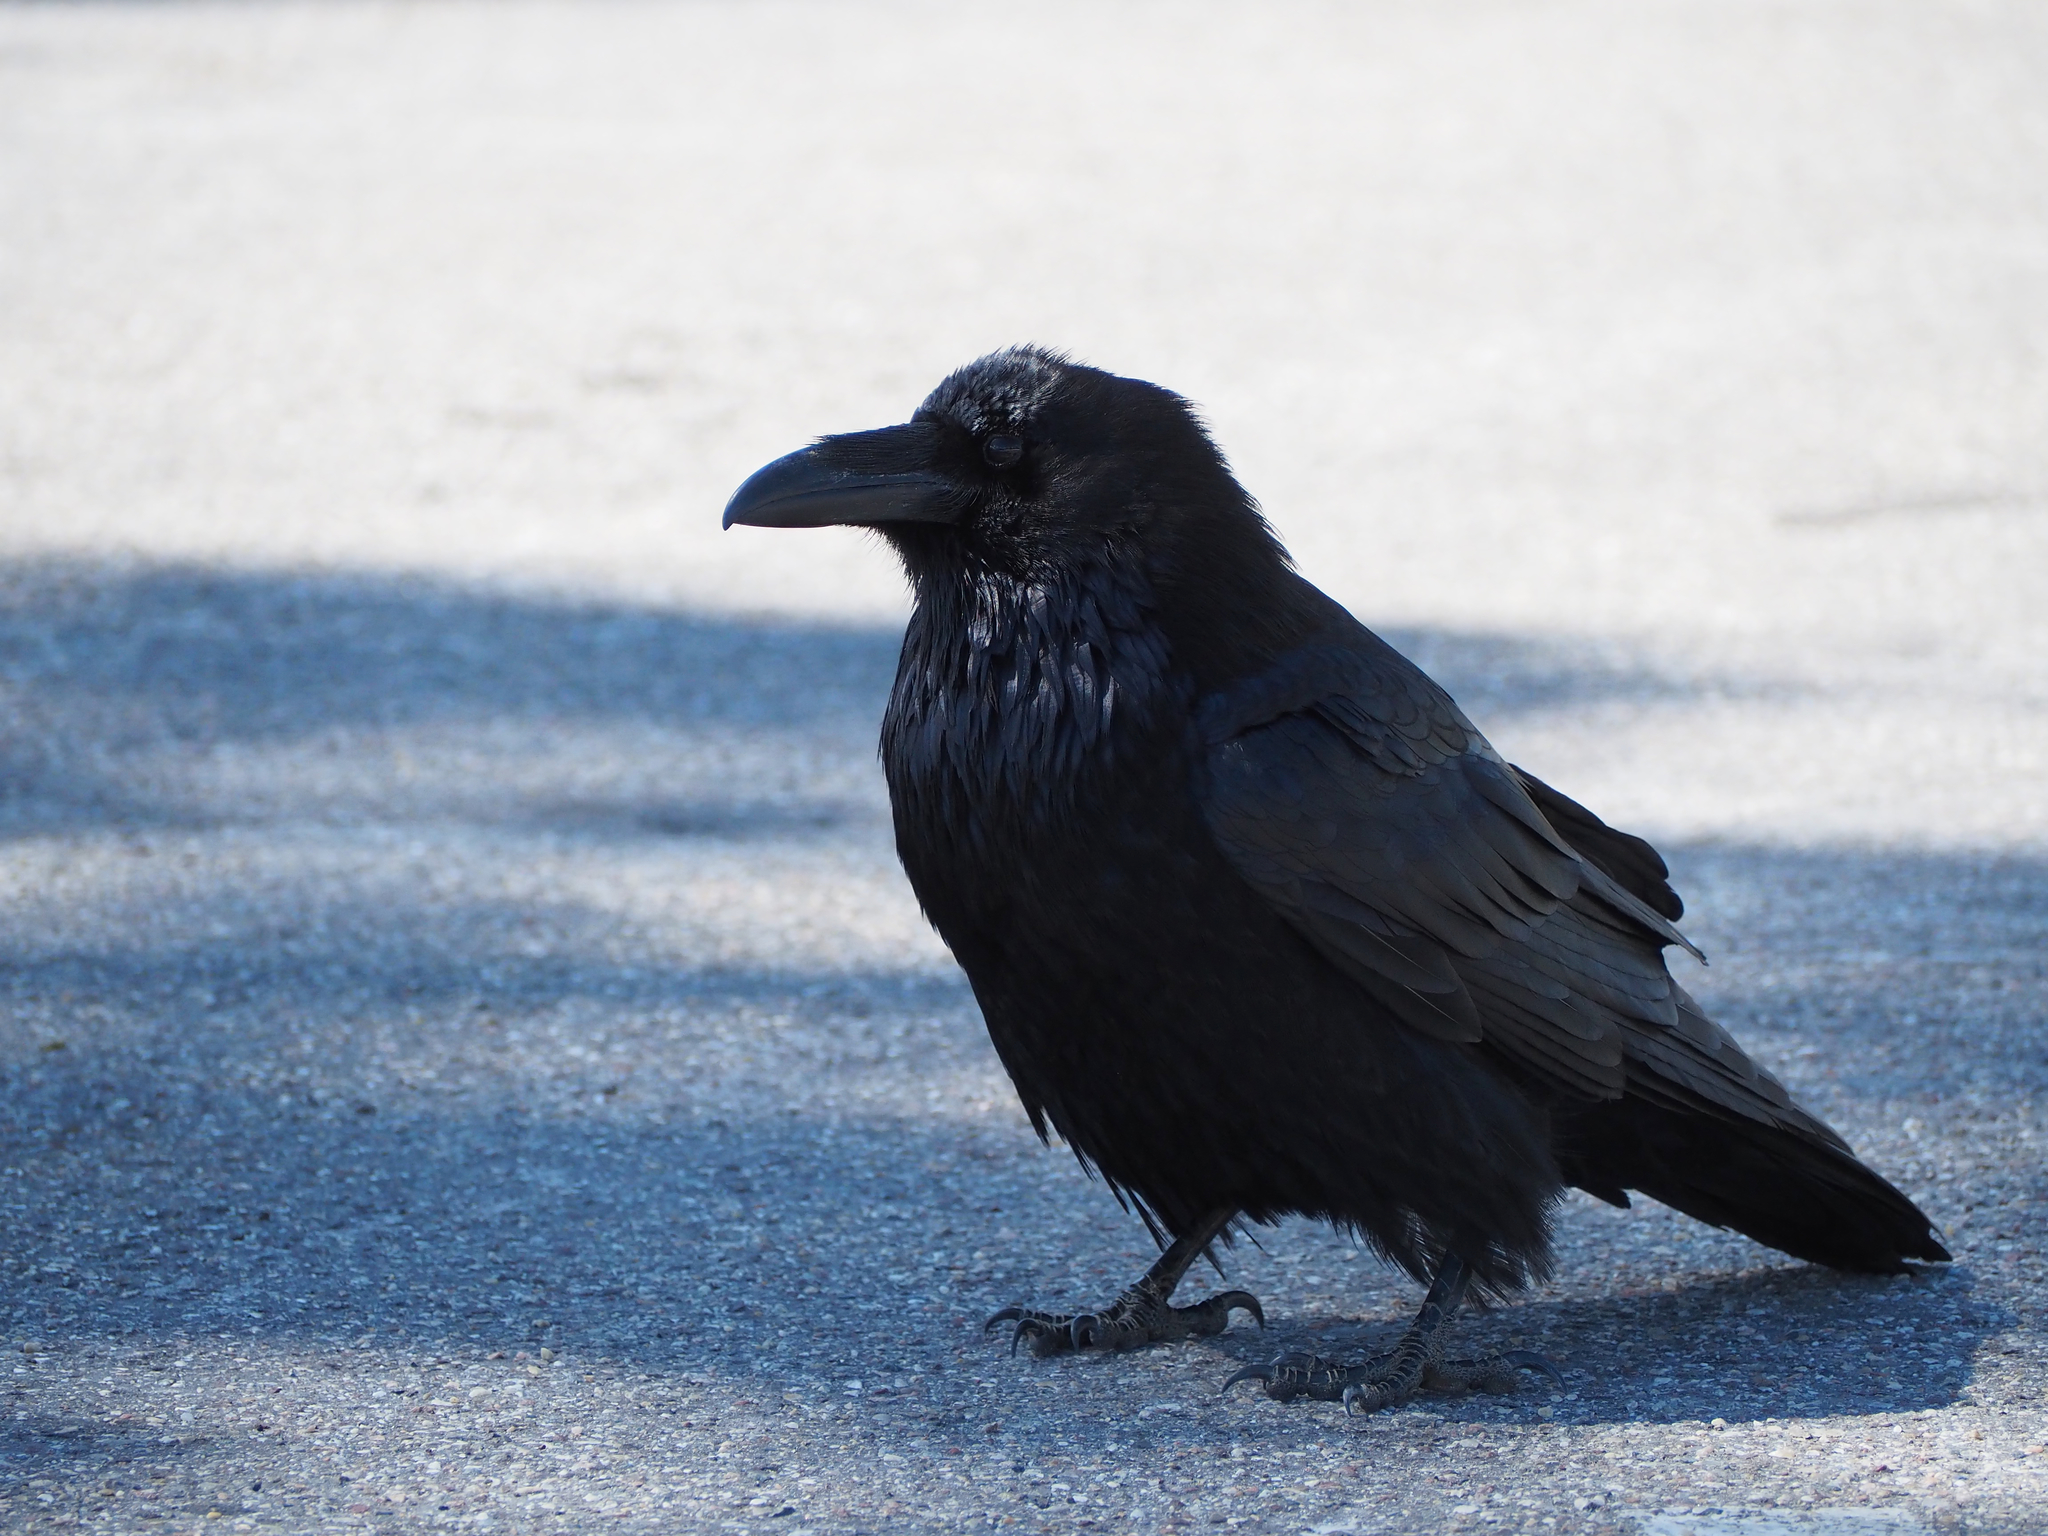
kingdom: Animalia
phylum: Chordata
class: Aves
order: Passeriformes
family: Corvidae
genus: Corvus
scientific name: Corvus corax
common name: Common raven
